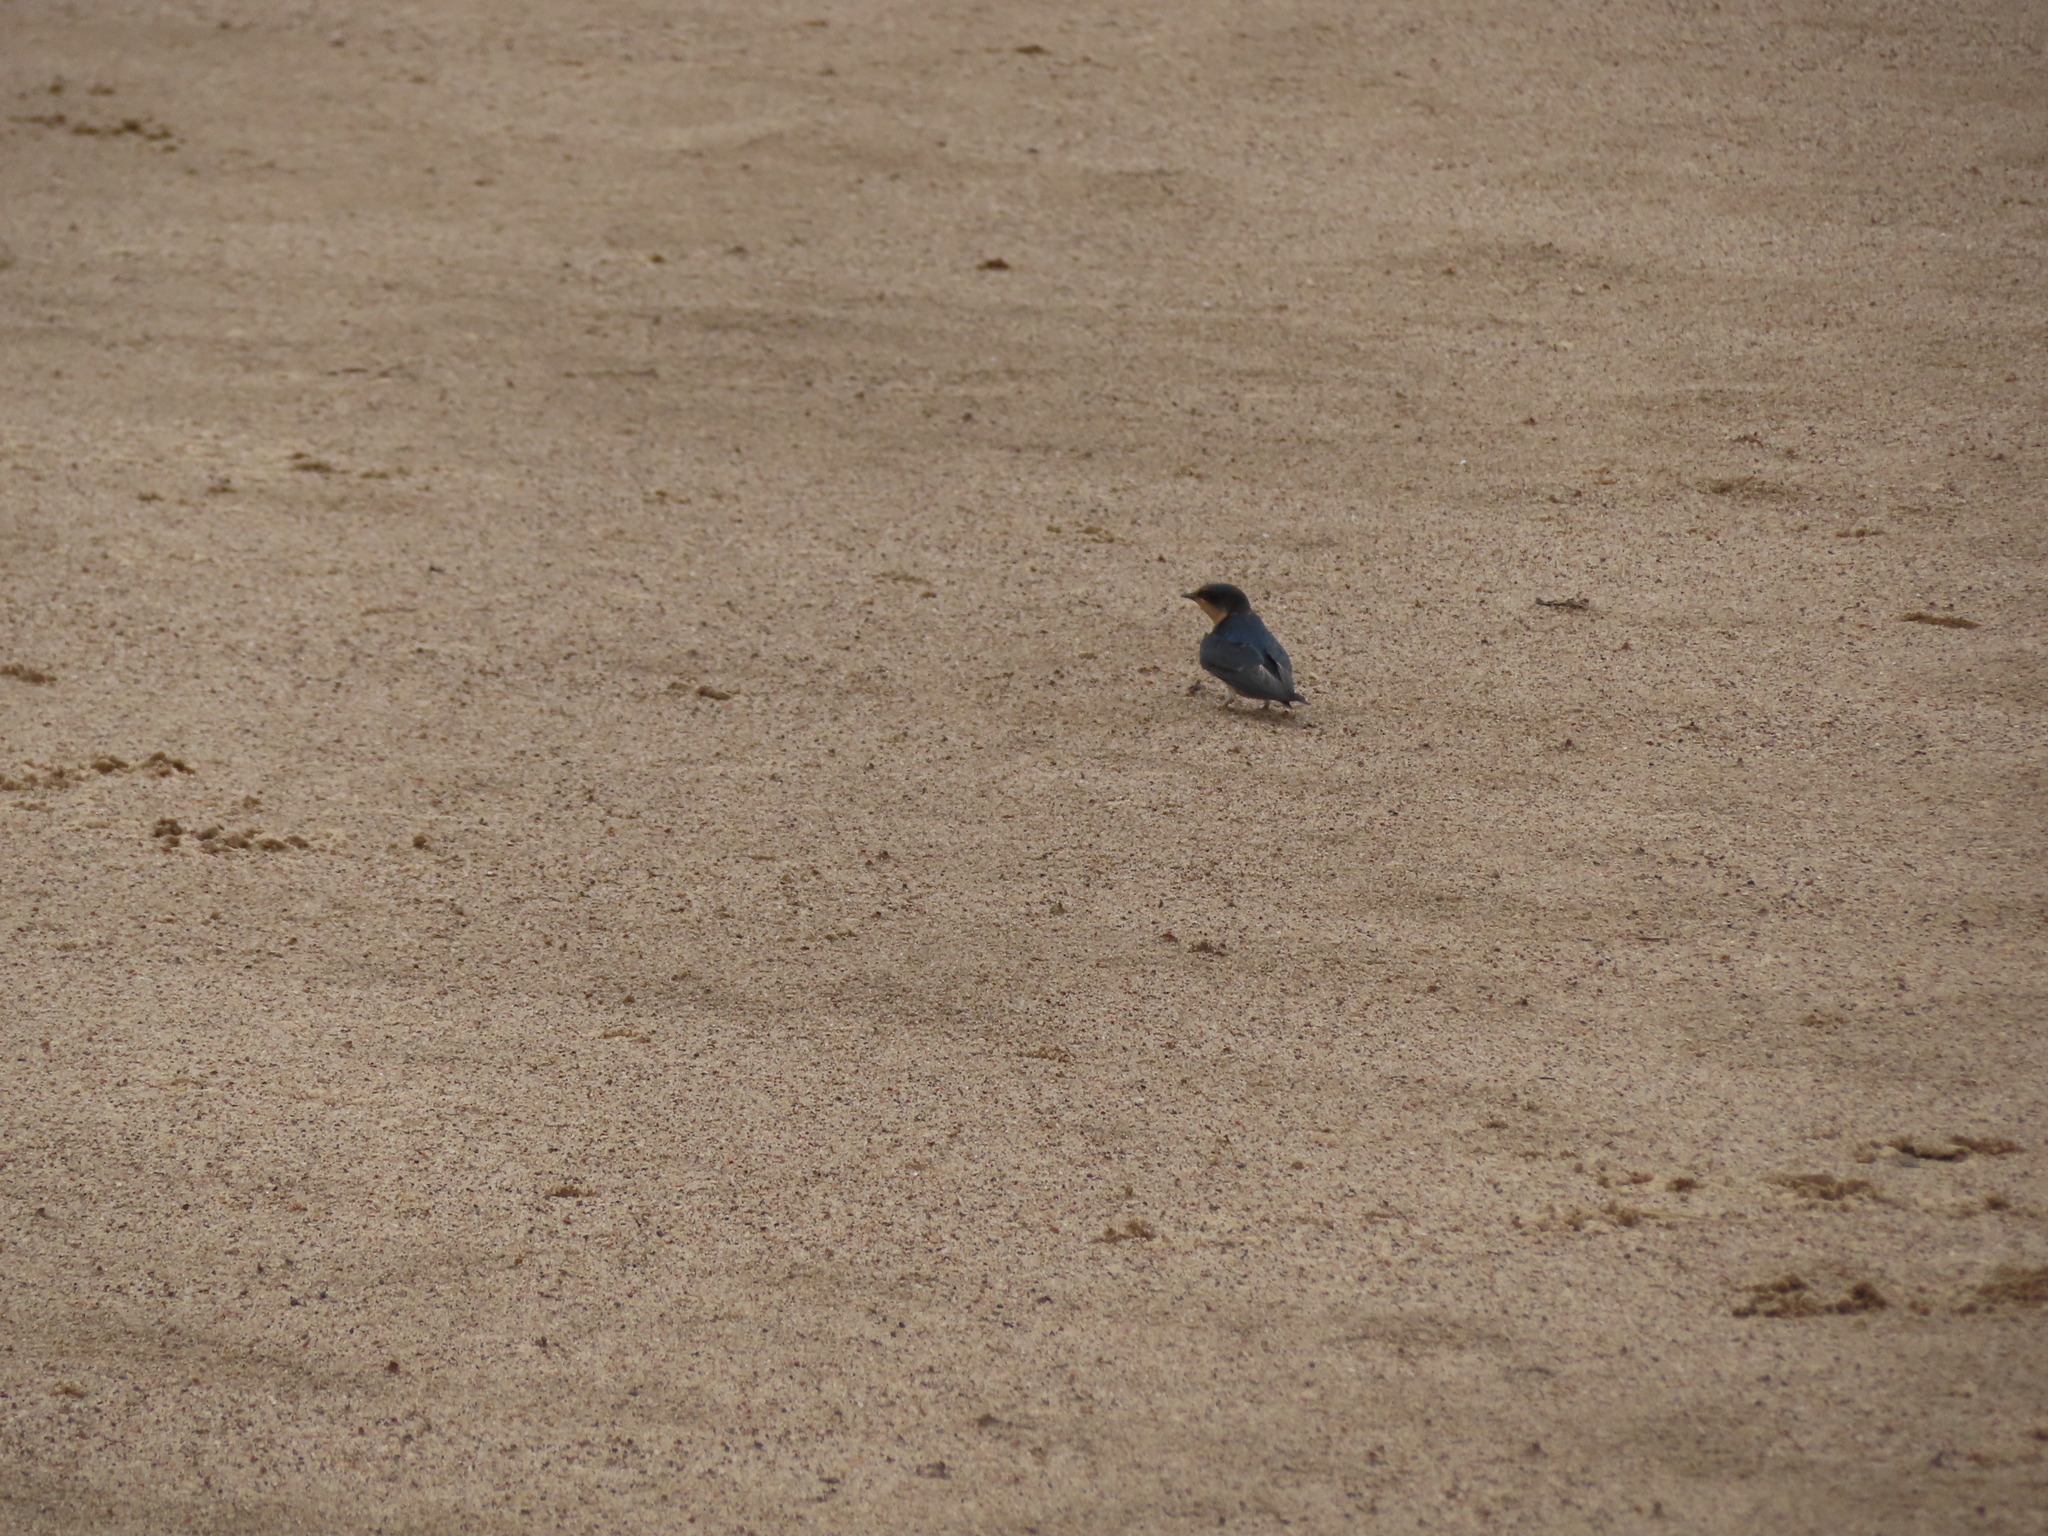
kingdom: Animalia
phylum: Chordata
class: Aves
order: Passeriformes
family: Hirundinidae
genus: Hirundo
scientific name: Hirundo rustica
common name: Barn swallow
